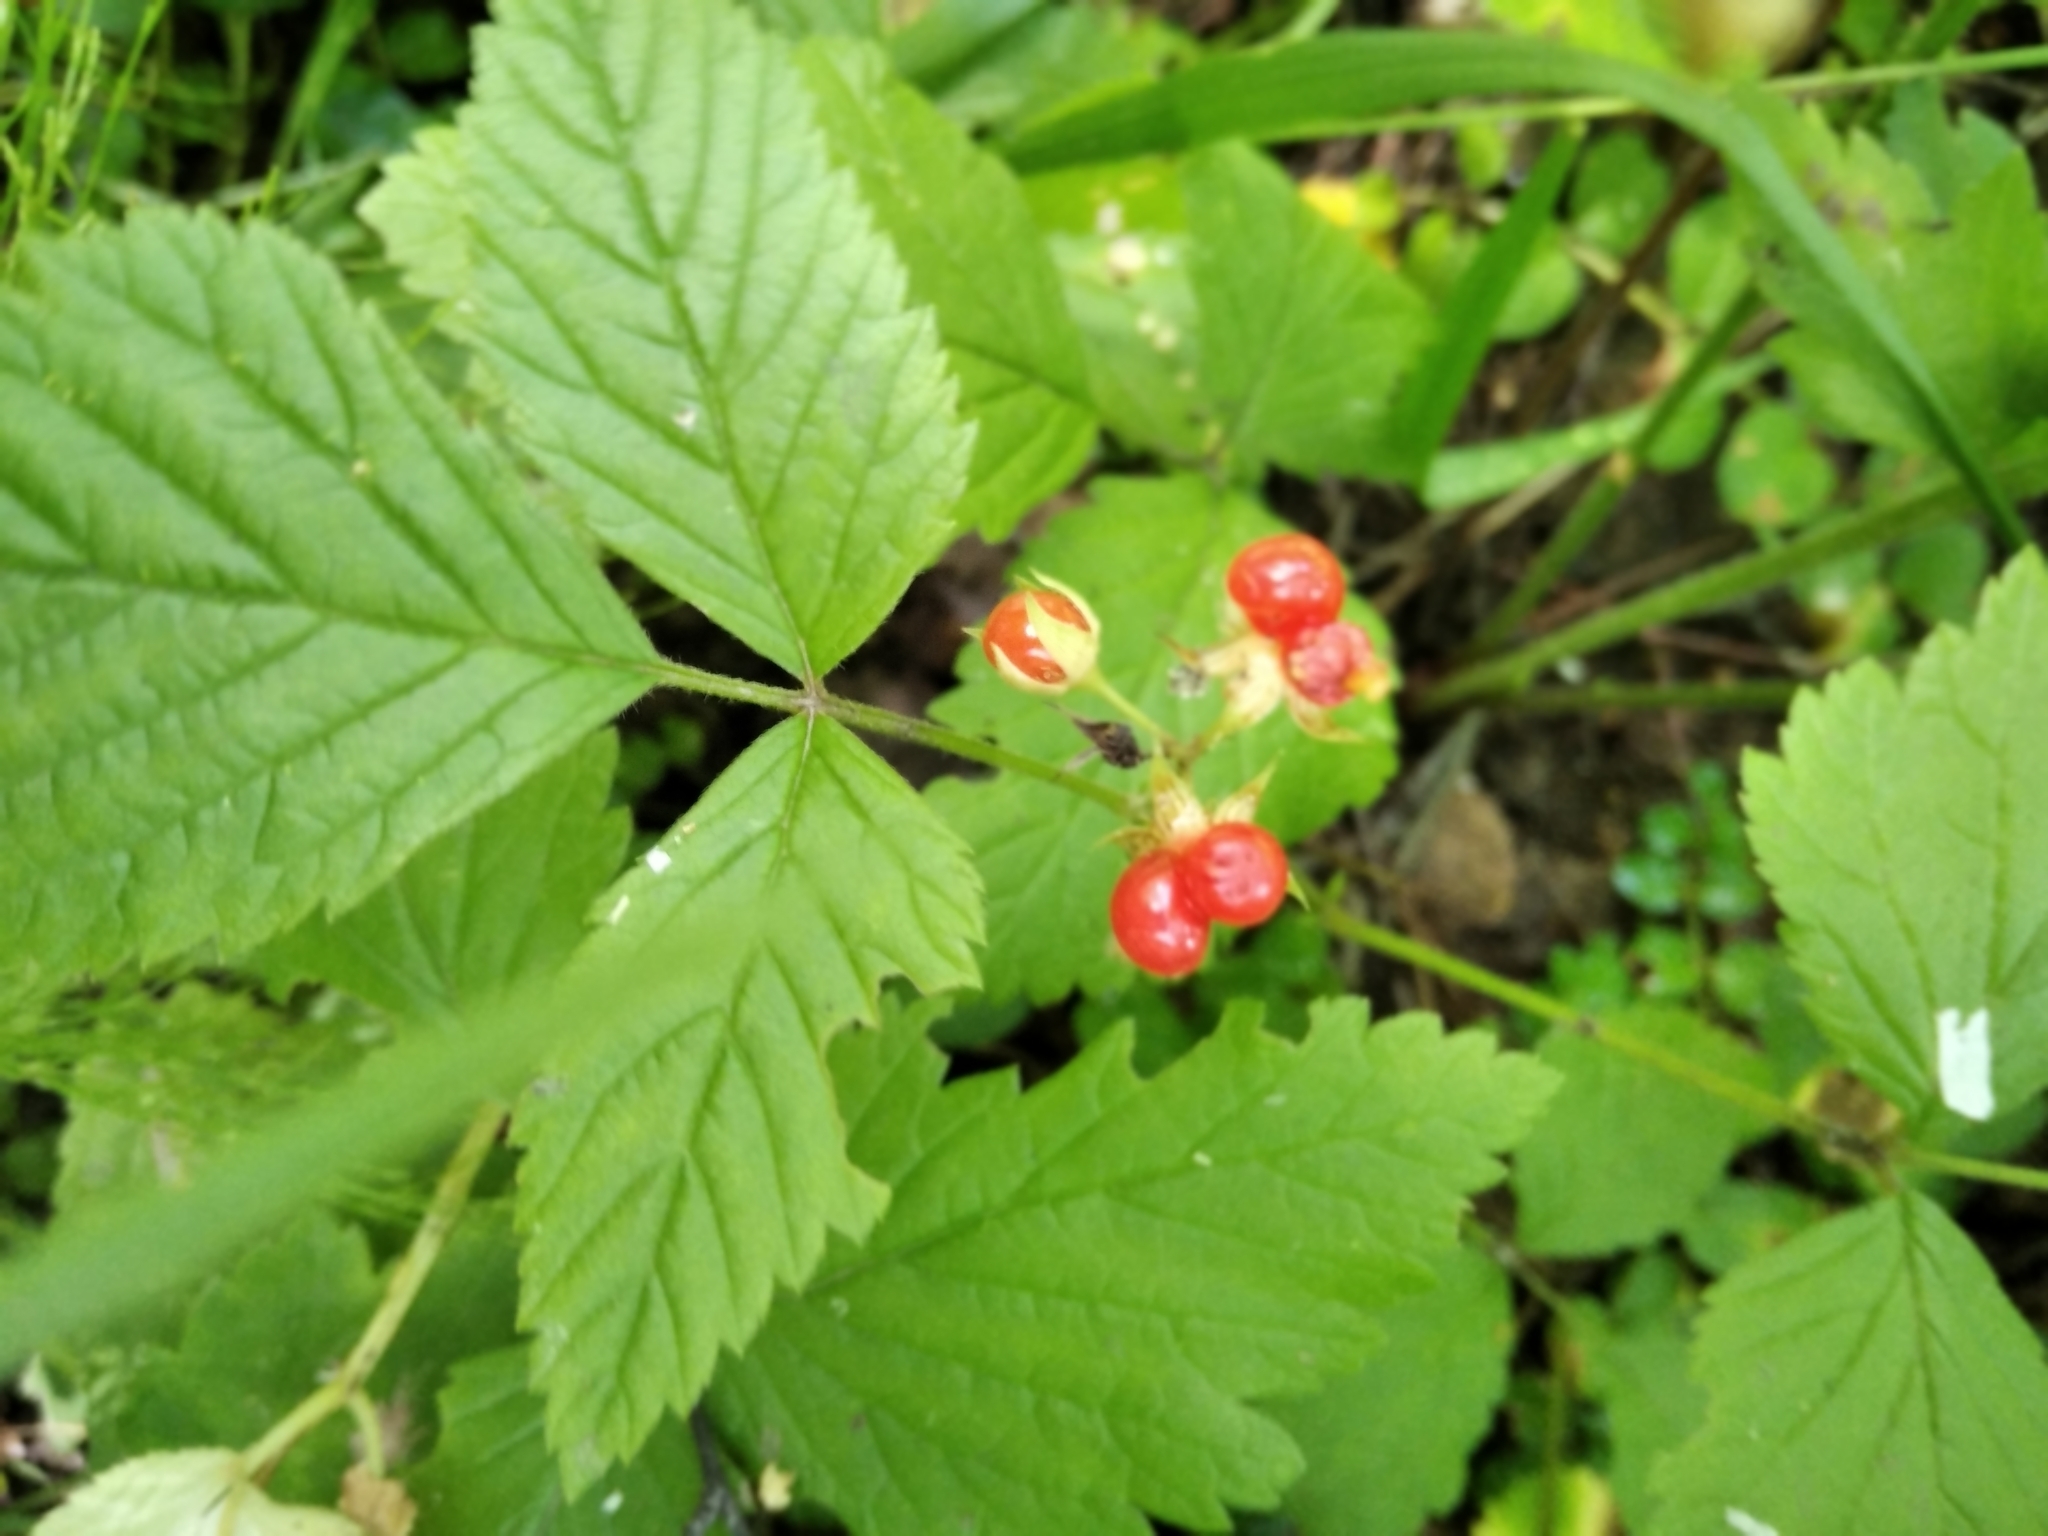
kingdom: Plantae
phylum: Tracheophyta
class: Magnoliopsida
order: Rosales
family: Rosaceae
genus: Rubus
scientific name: Rubus saxatilis
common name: Stone bramble
